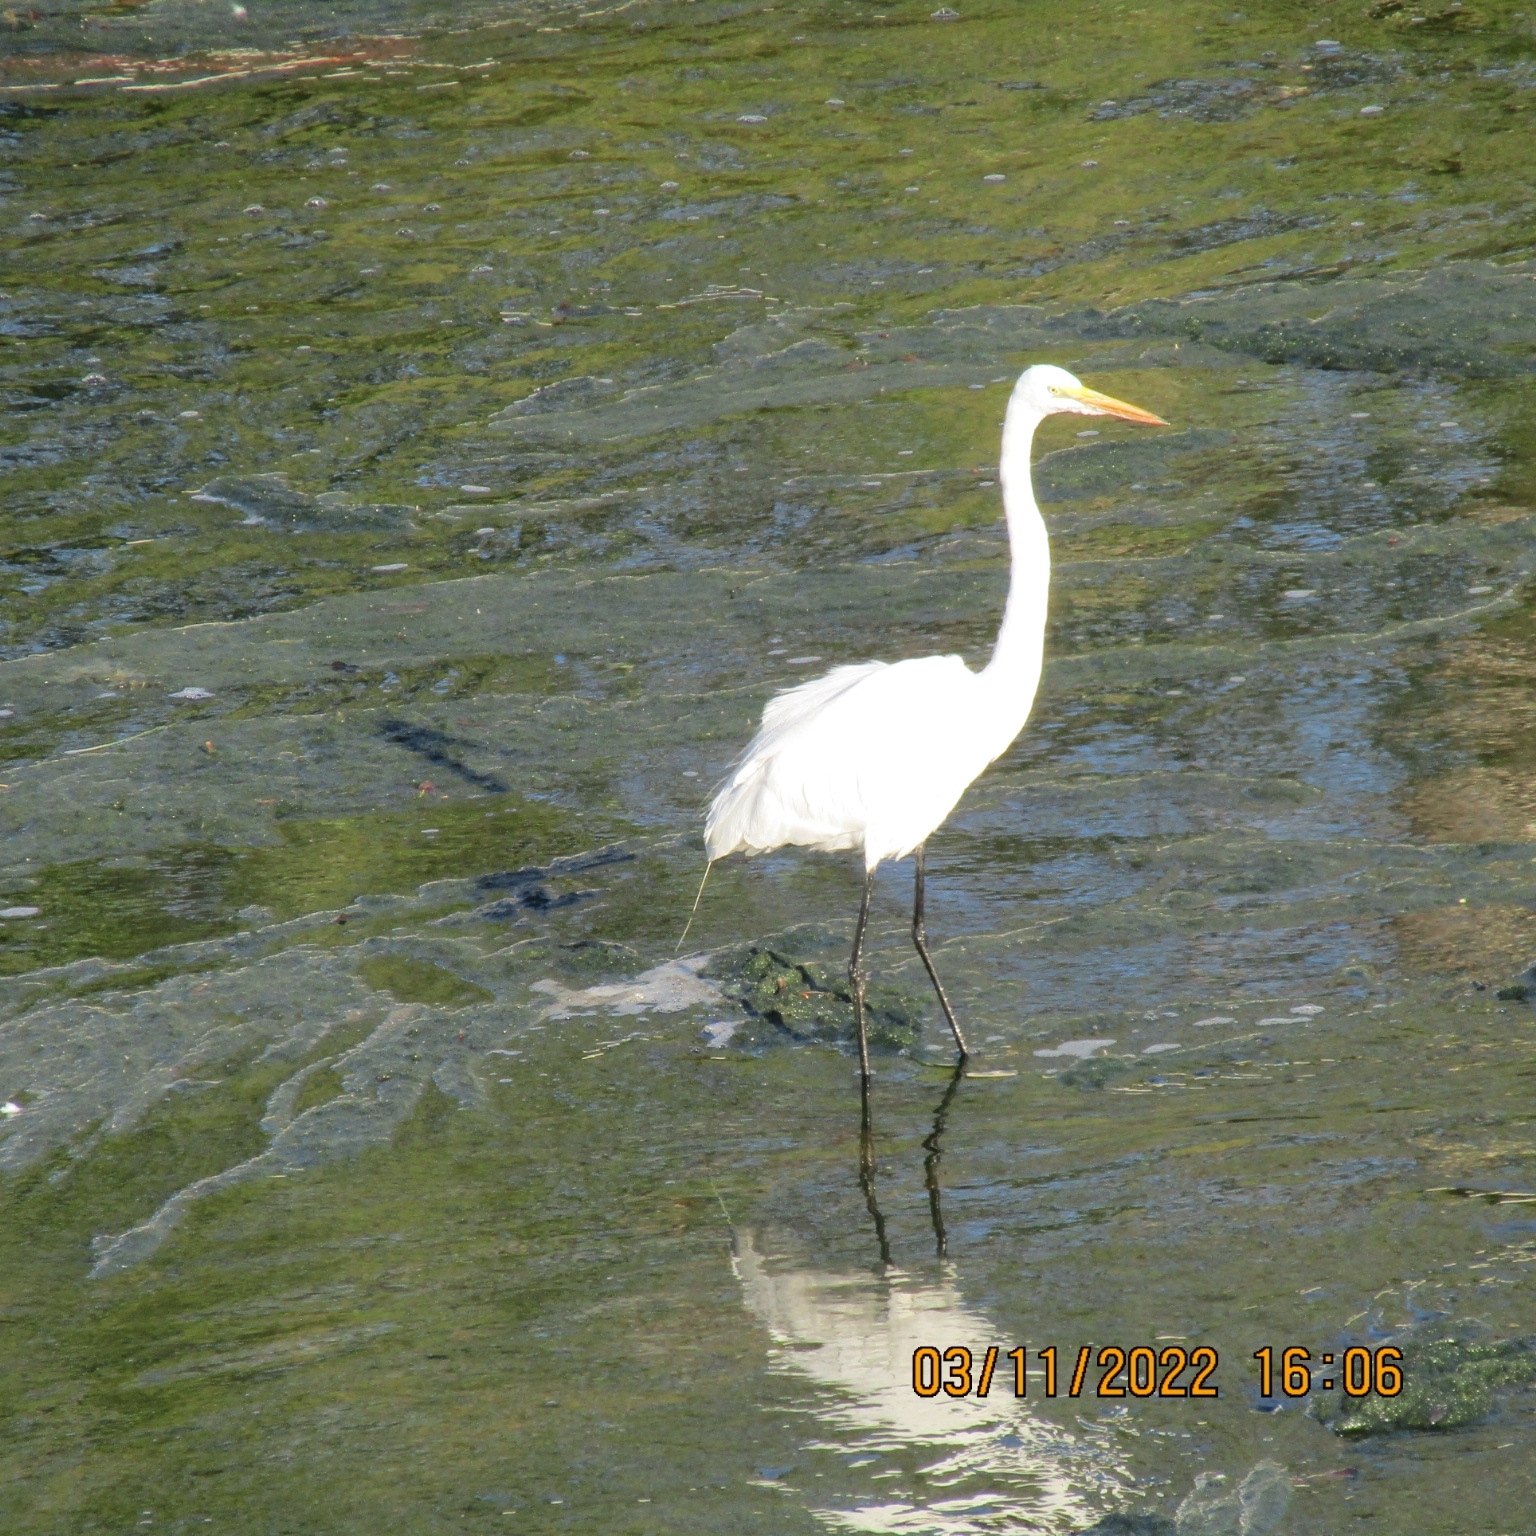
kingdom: Animalia
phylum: Chordata
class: Aves
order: Pelecaniformes
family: Ardeidae
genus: Ardea
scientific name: Ardea alba
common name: Great egret
